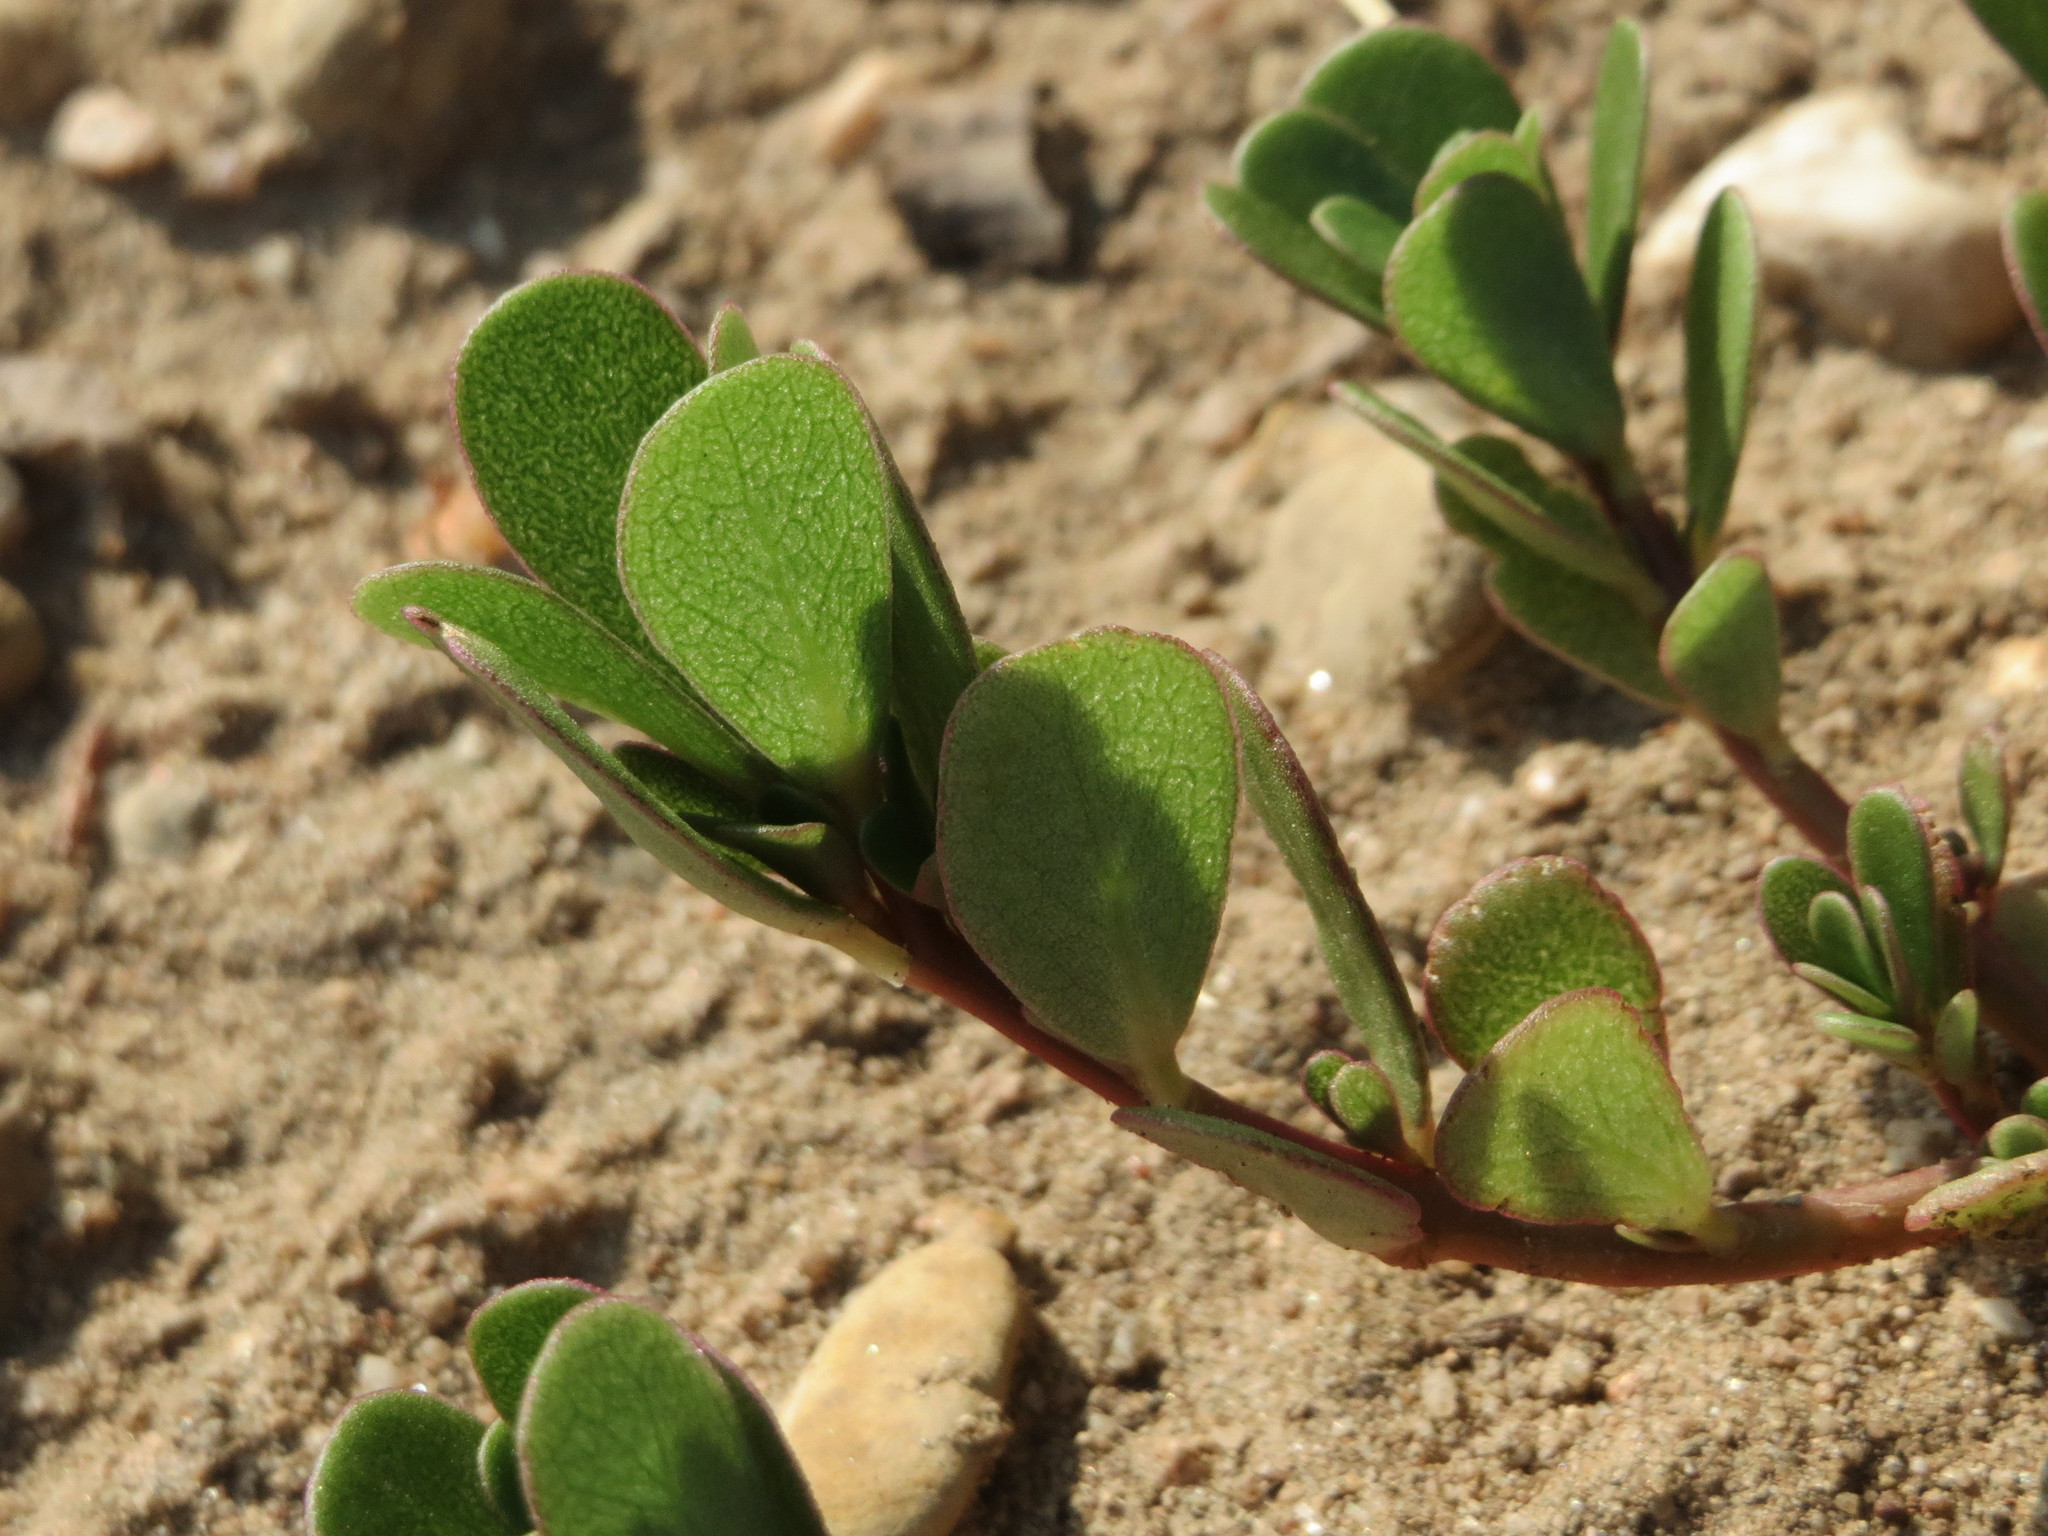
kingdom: Plantae
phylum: Tracheophyta
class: Magnoliopsida
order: Caryophyllales
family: Portulacaceae
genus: Portulaca
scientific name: Portulaca oleracea
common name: Common purslane
